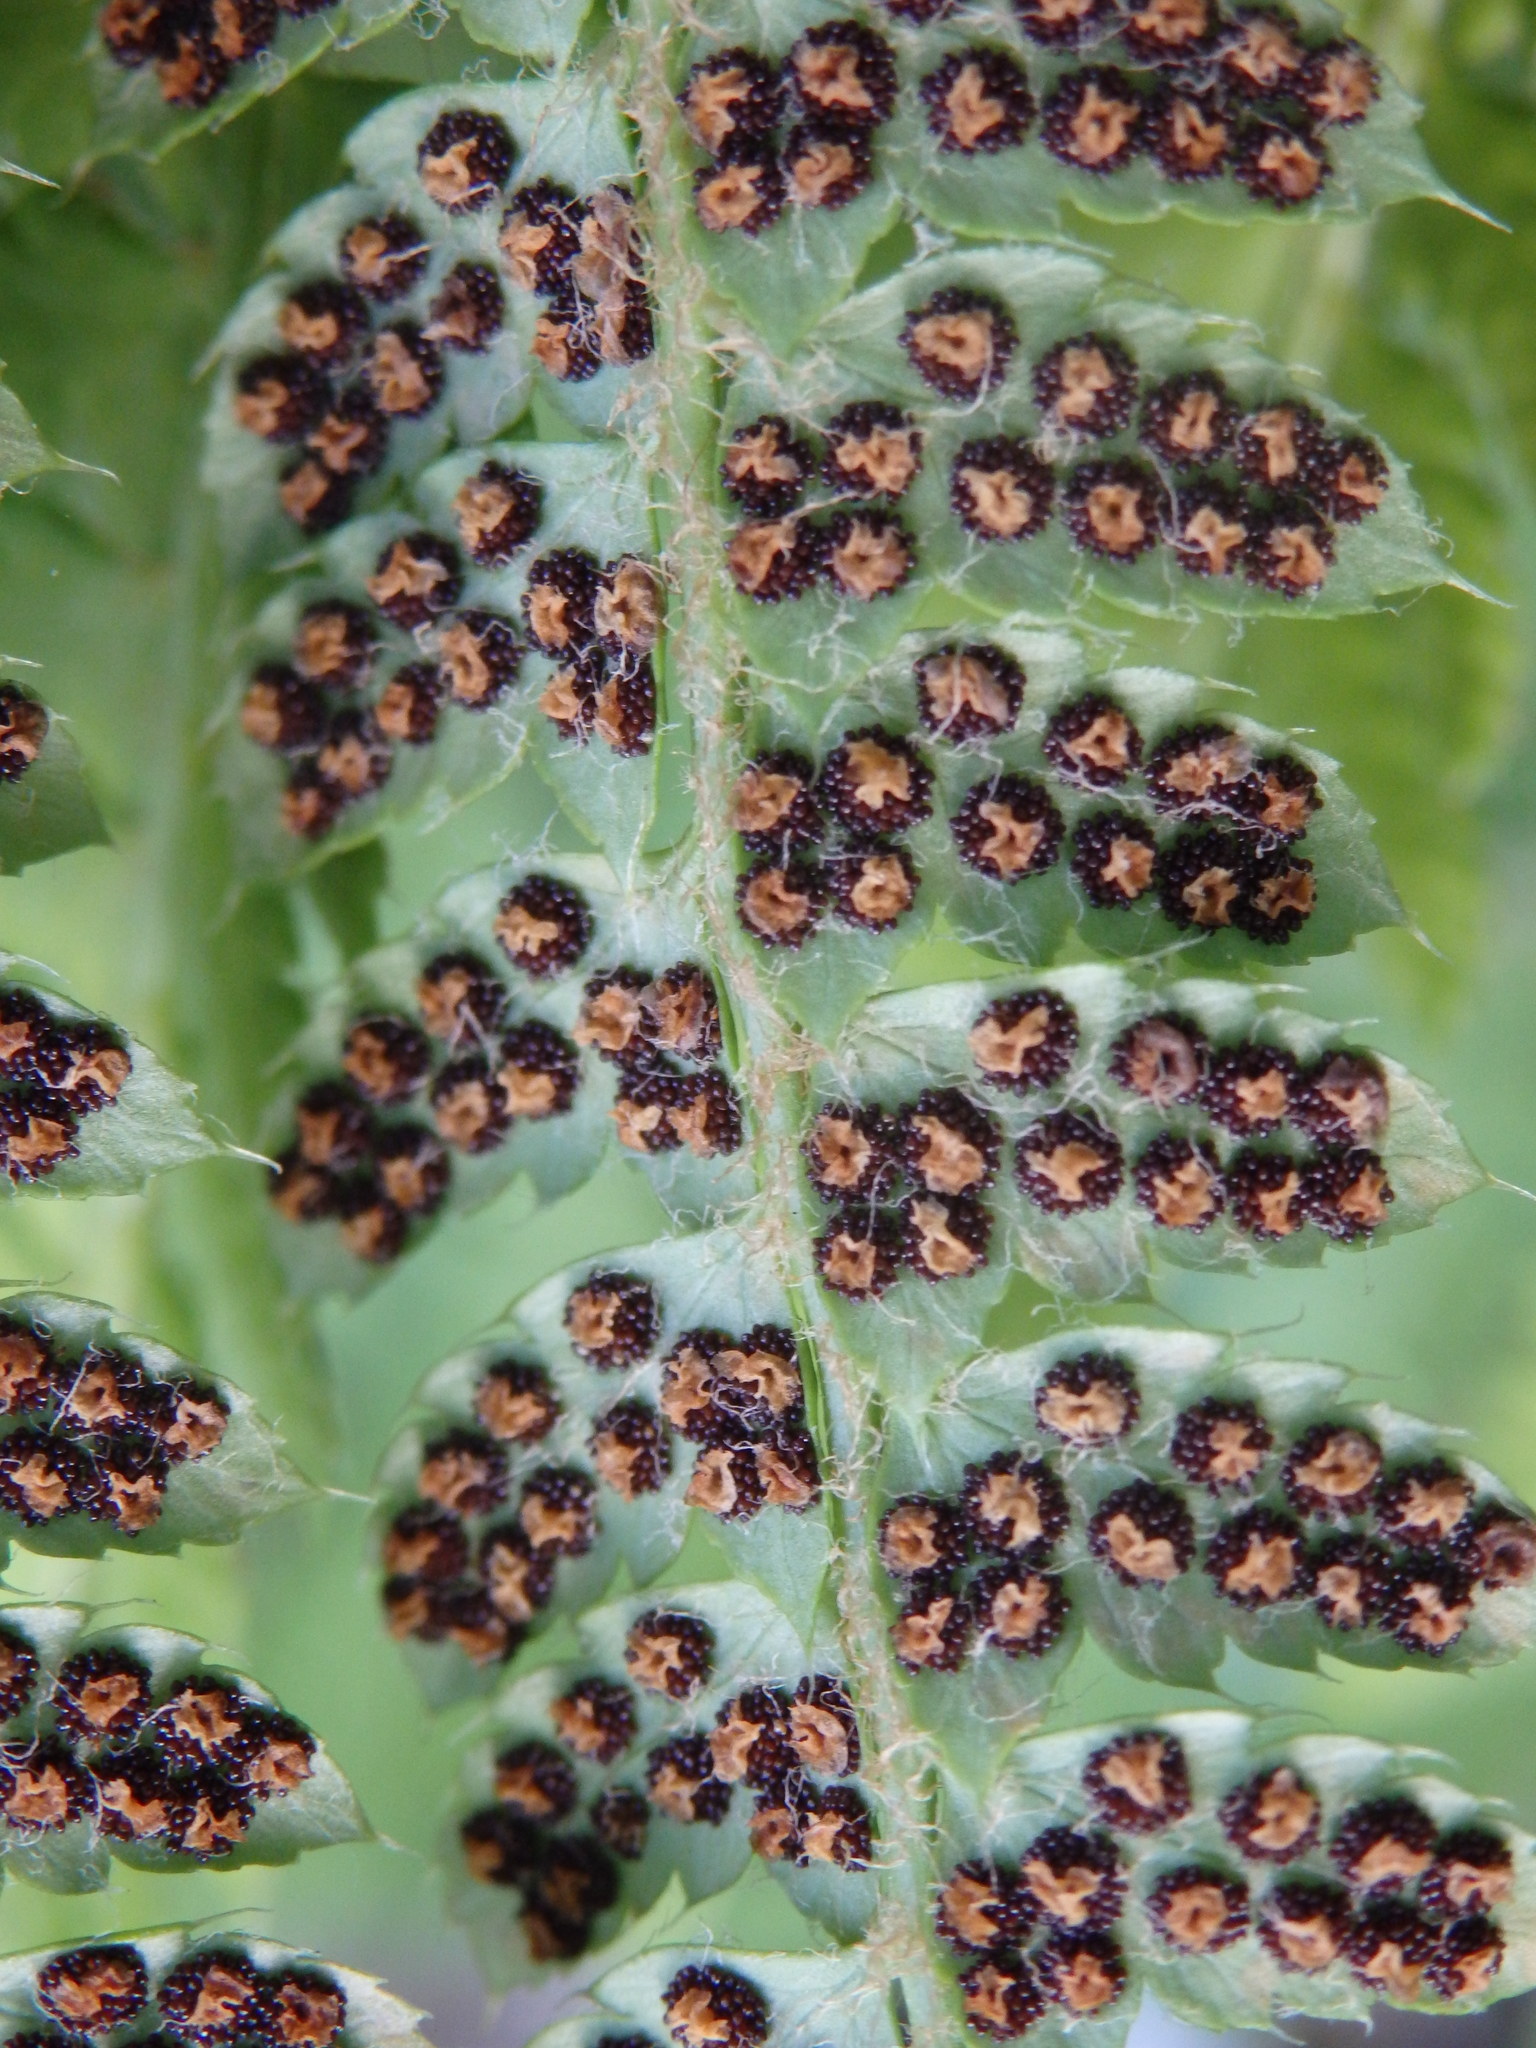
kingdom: Plantae
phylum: Tracheophyta
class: Polypodiopsida
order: Polypodiales
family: Dryopteridaceae
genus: Polystichum
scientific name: Polystichum setiferum
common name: Soft shield-fern
